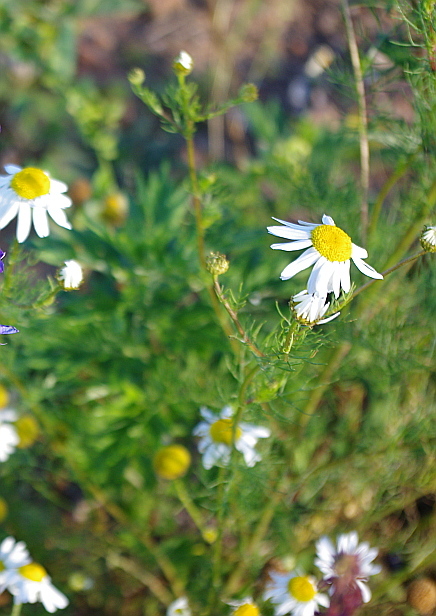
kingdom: Plantae
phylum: Tracheophyta
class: Magnoliopsida
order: Asterales
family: Asteraceae
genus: Tripleurospermum
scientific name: Tripleurospermum inodorum
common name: Scentless mayweed
